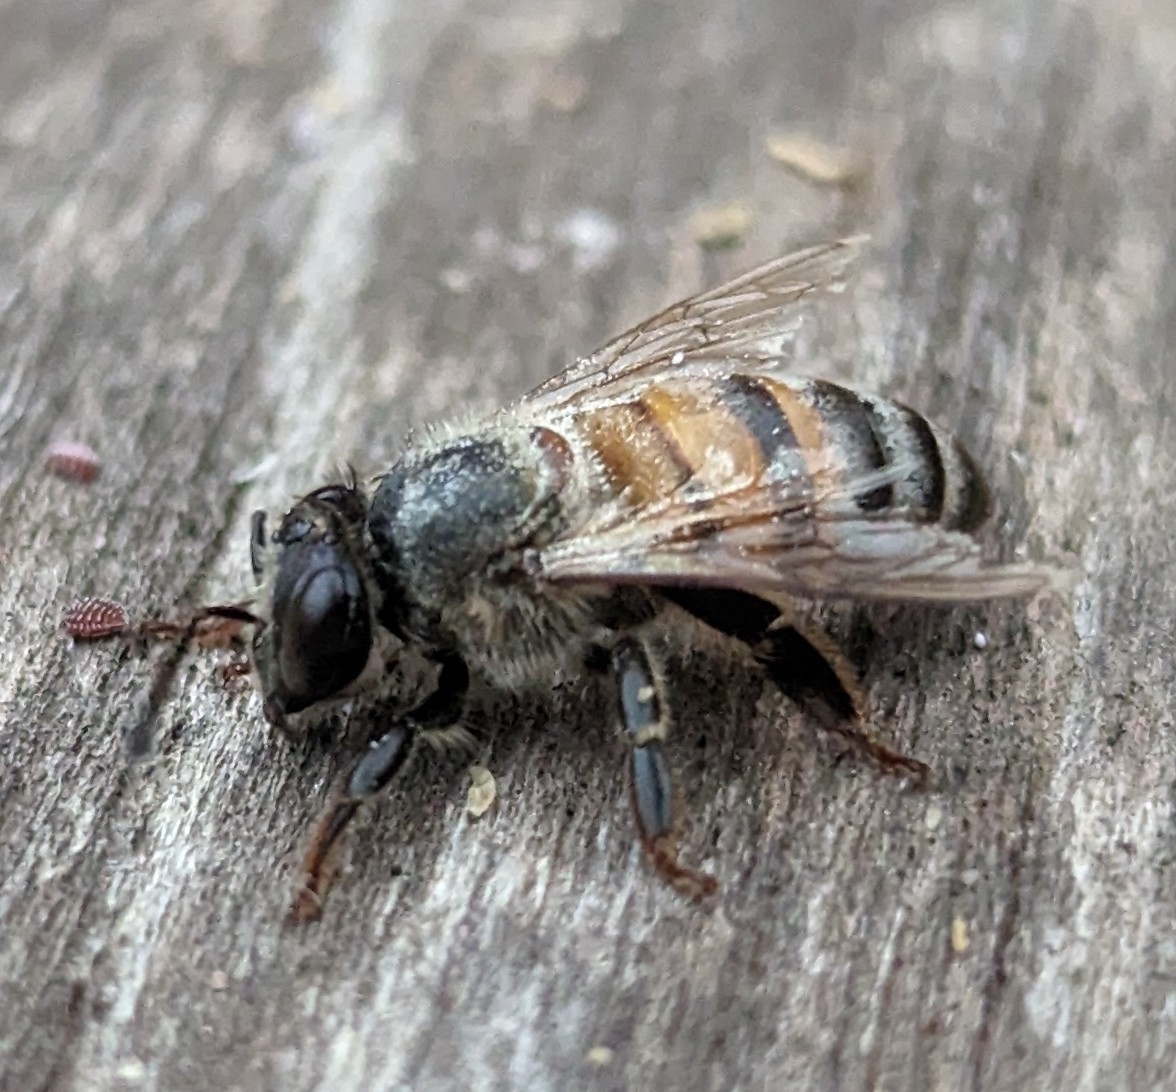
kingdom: Animalia
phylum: Arthropoda
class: Insecta
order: Hymenoptera
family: Apidae
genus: Apis
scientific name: Apis mellifera
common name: Honey bee
